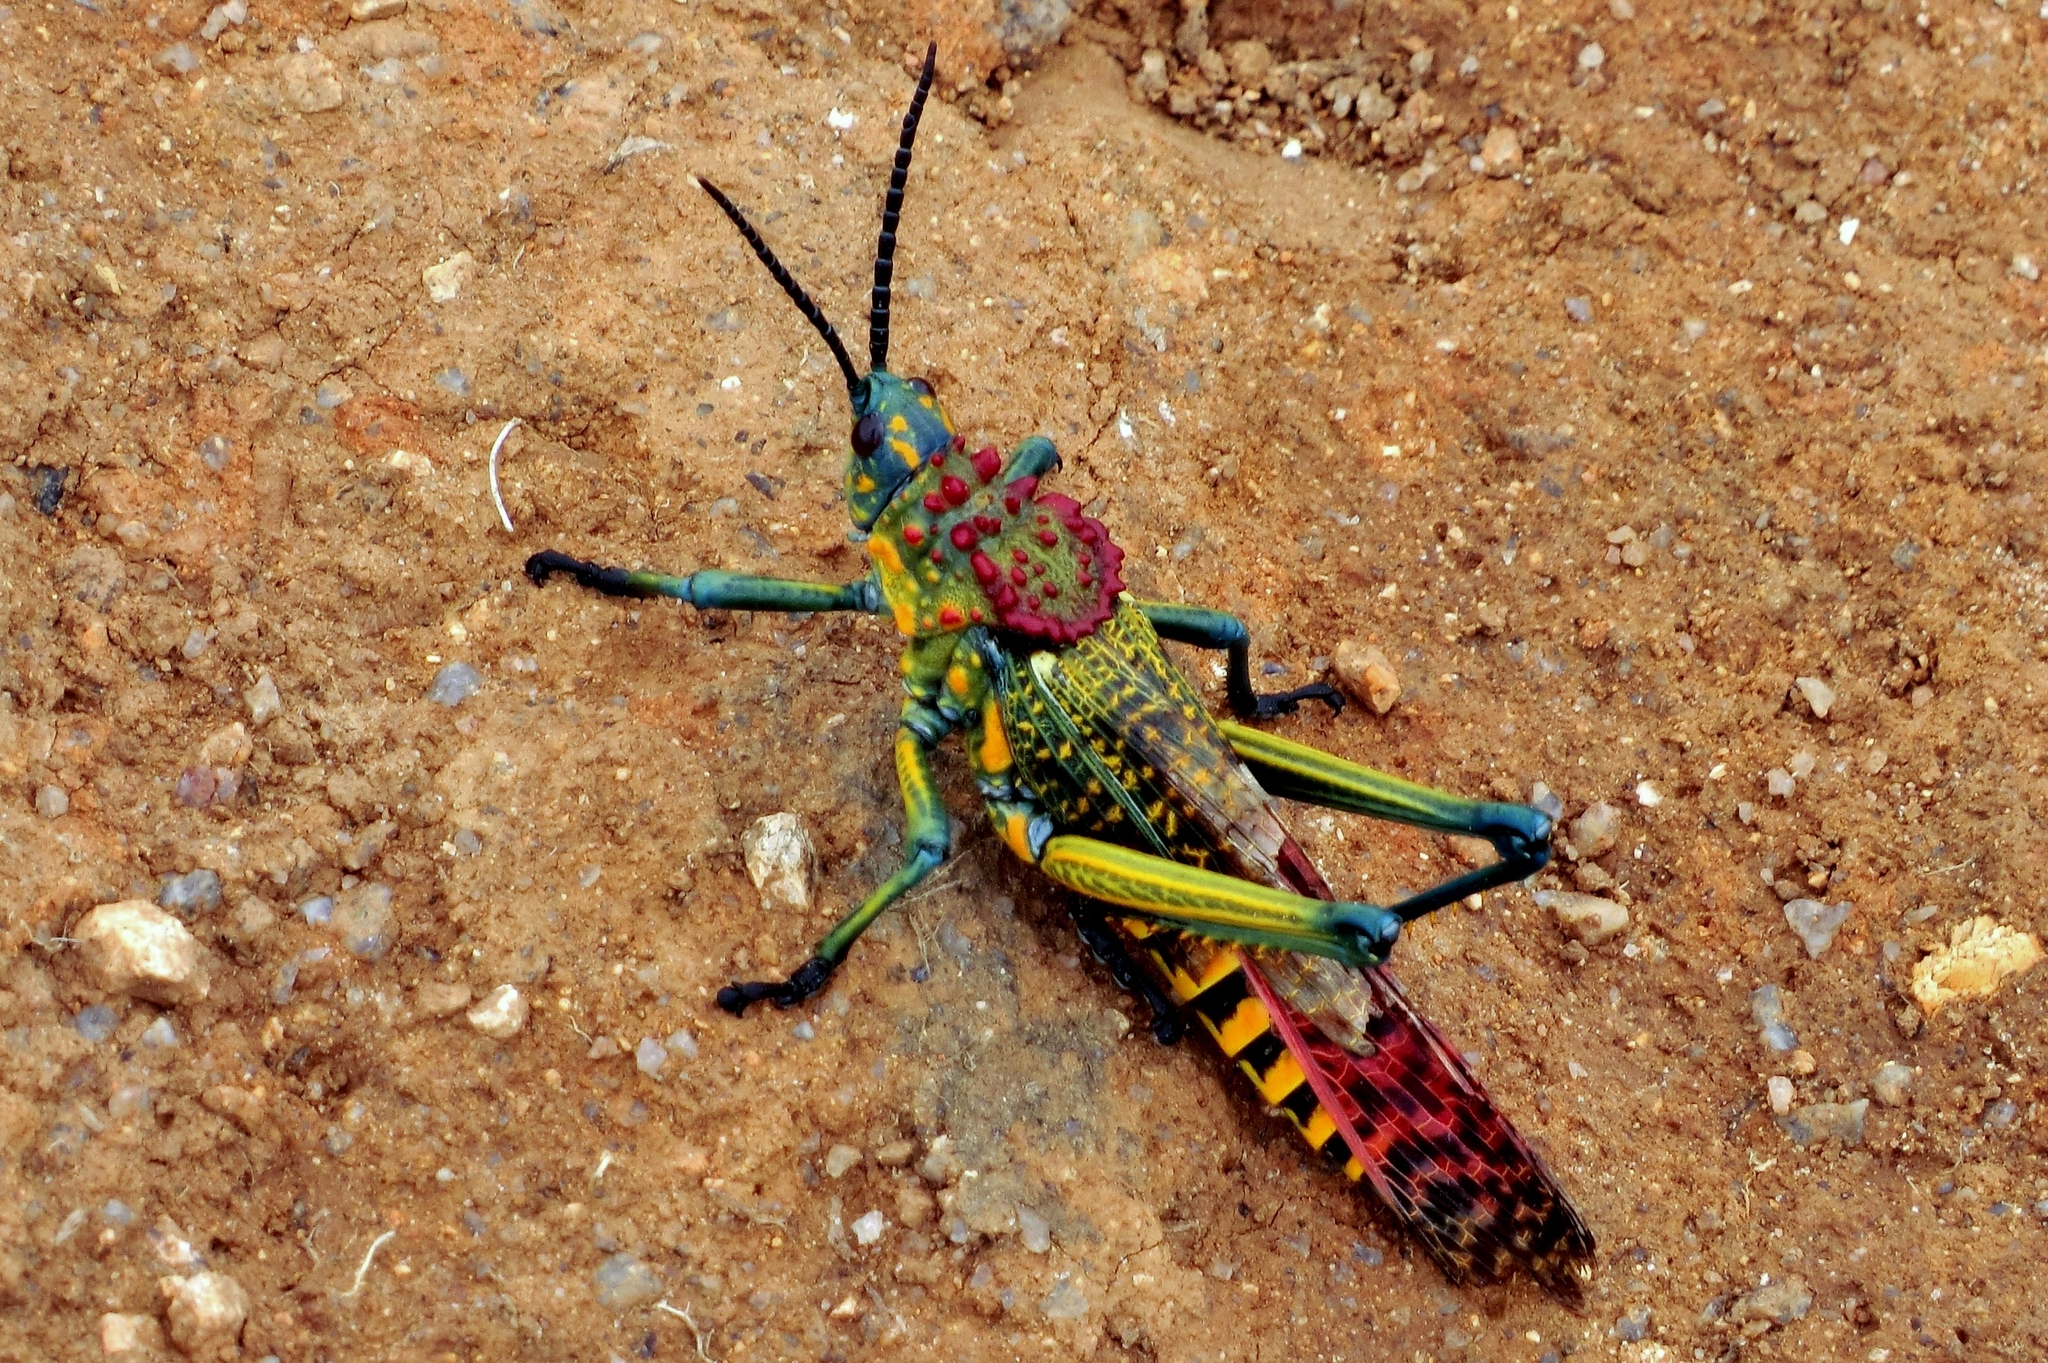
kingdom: Animalia
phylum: Arthropoda
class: Insecta
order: Orthoptera
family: Pyrgomorphidae
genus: Phymateus
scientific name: Phymateus saxosus
